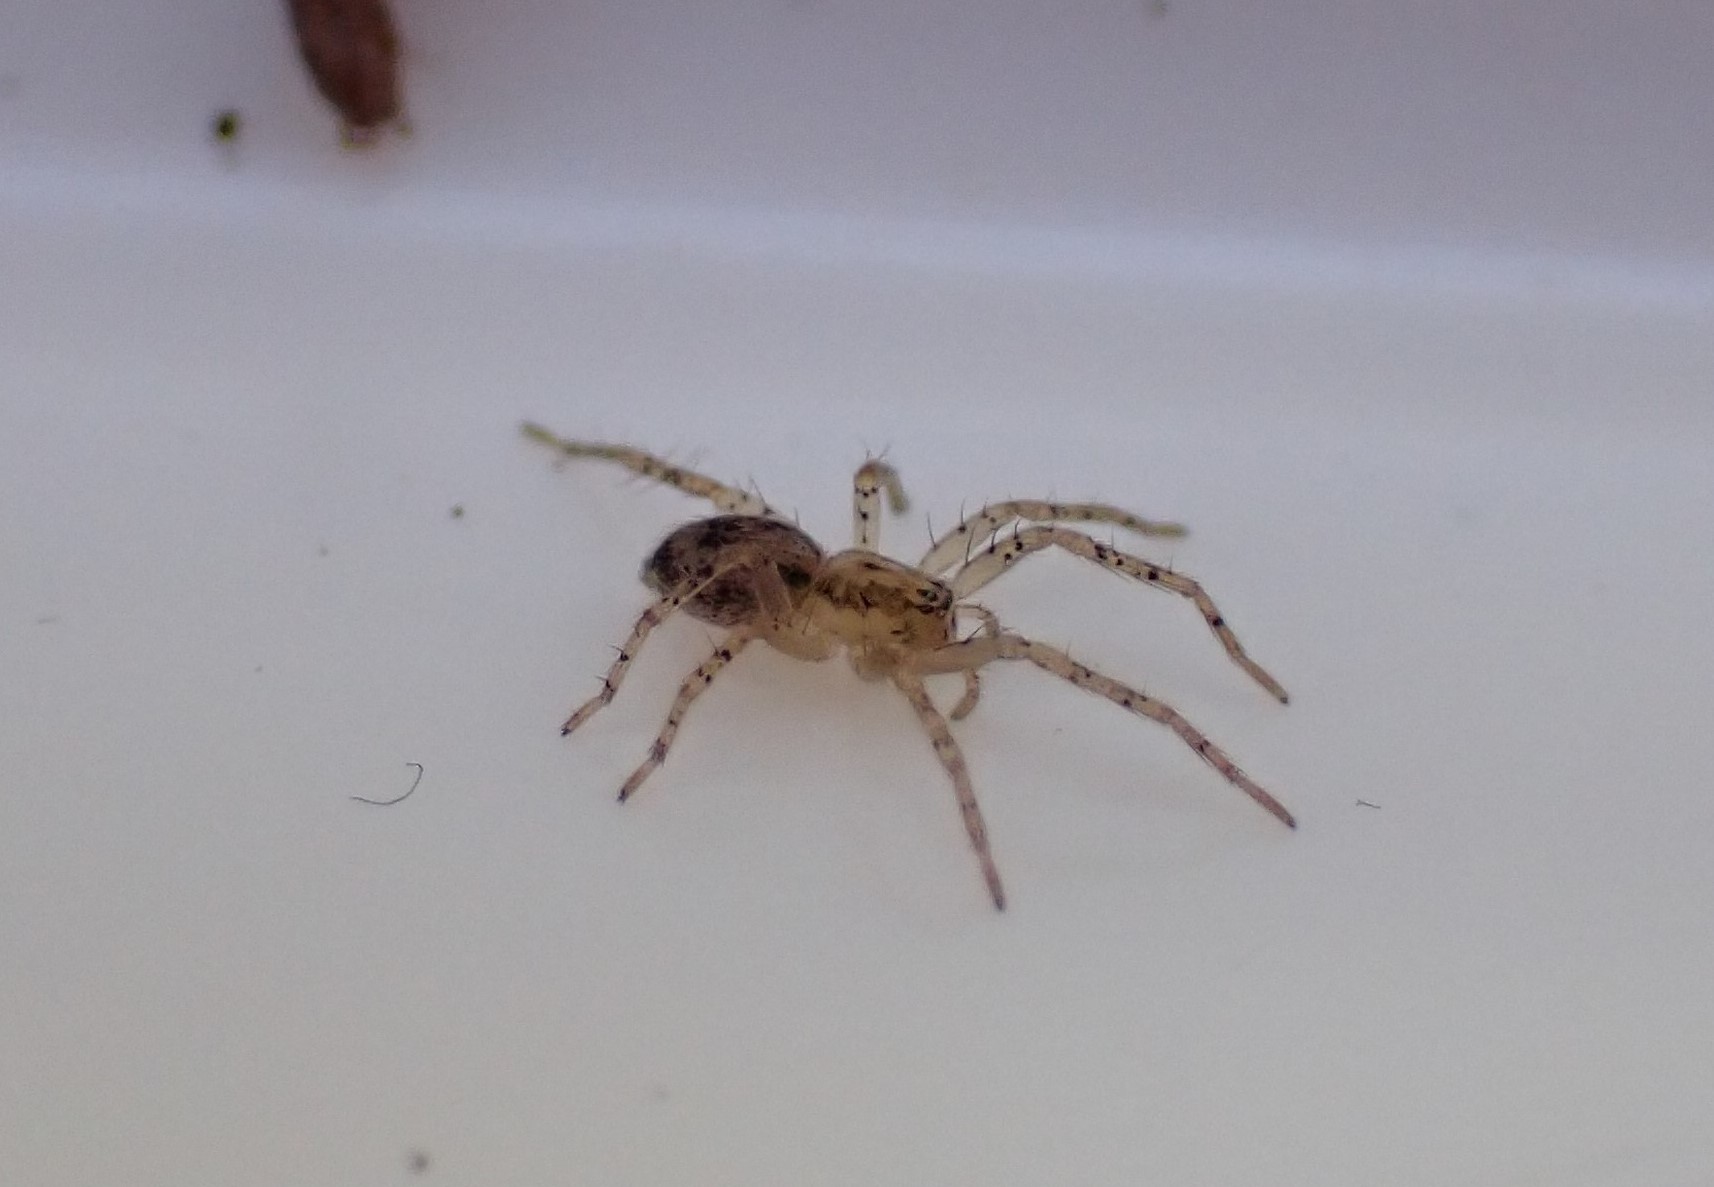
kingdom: Animalia
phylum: Arthropoda
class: Arachnida
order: Araneae
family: Anyphaenidae
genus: Anyphaena
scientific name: Anyphaena accentuata
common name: Buzzing spider
